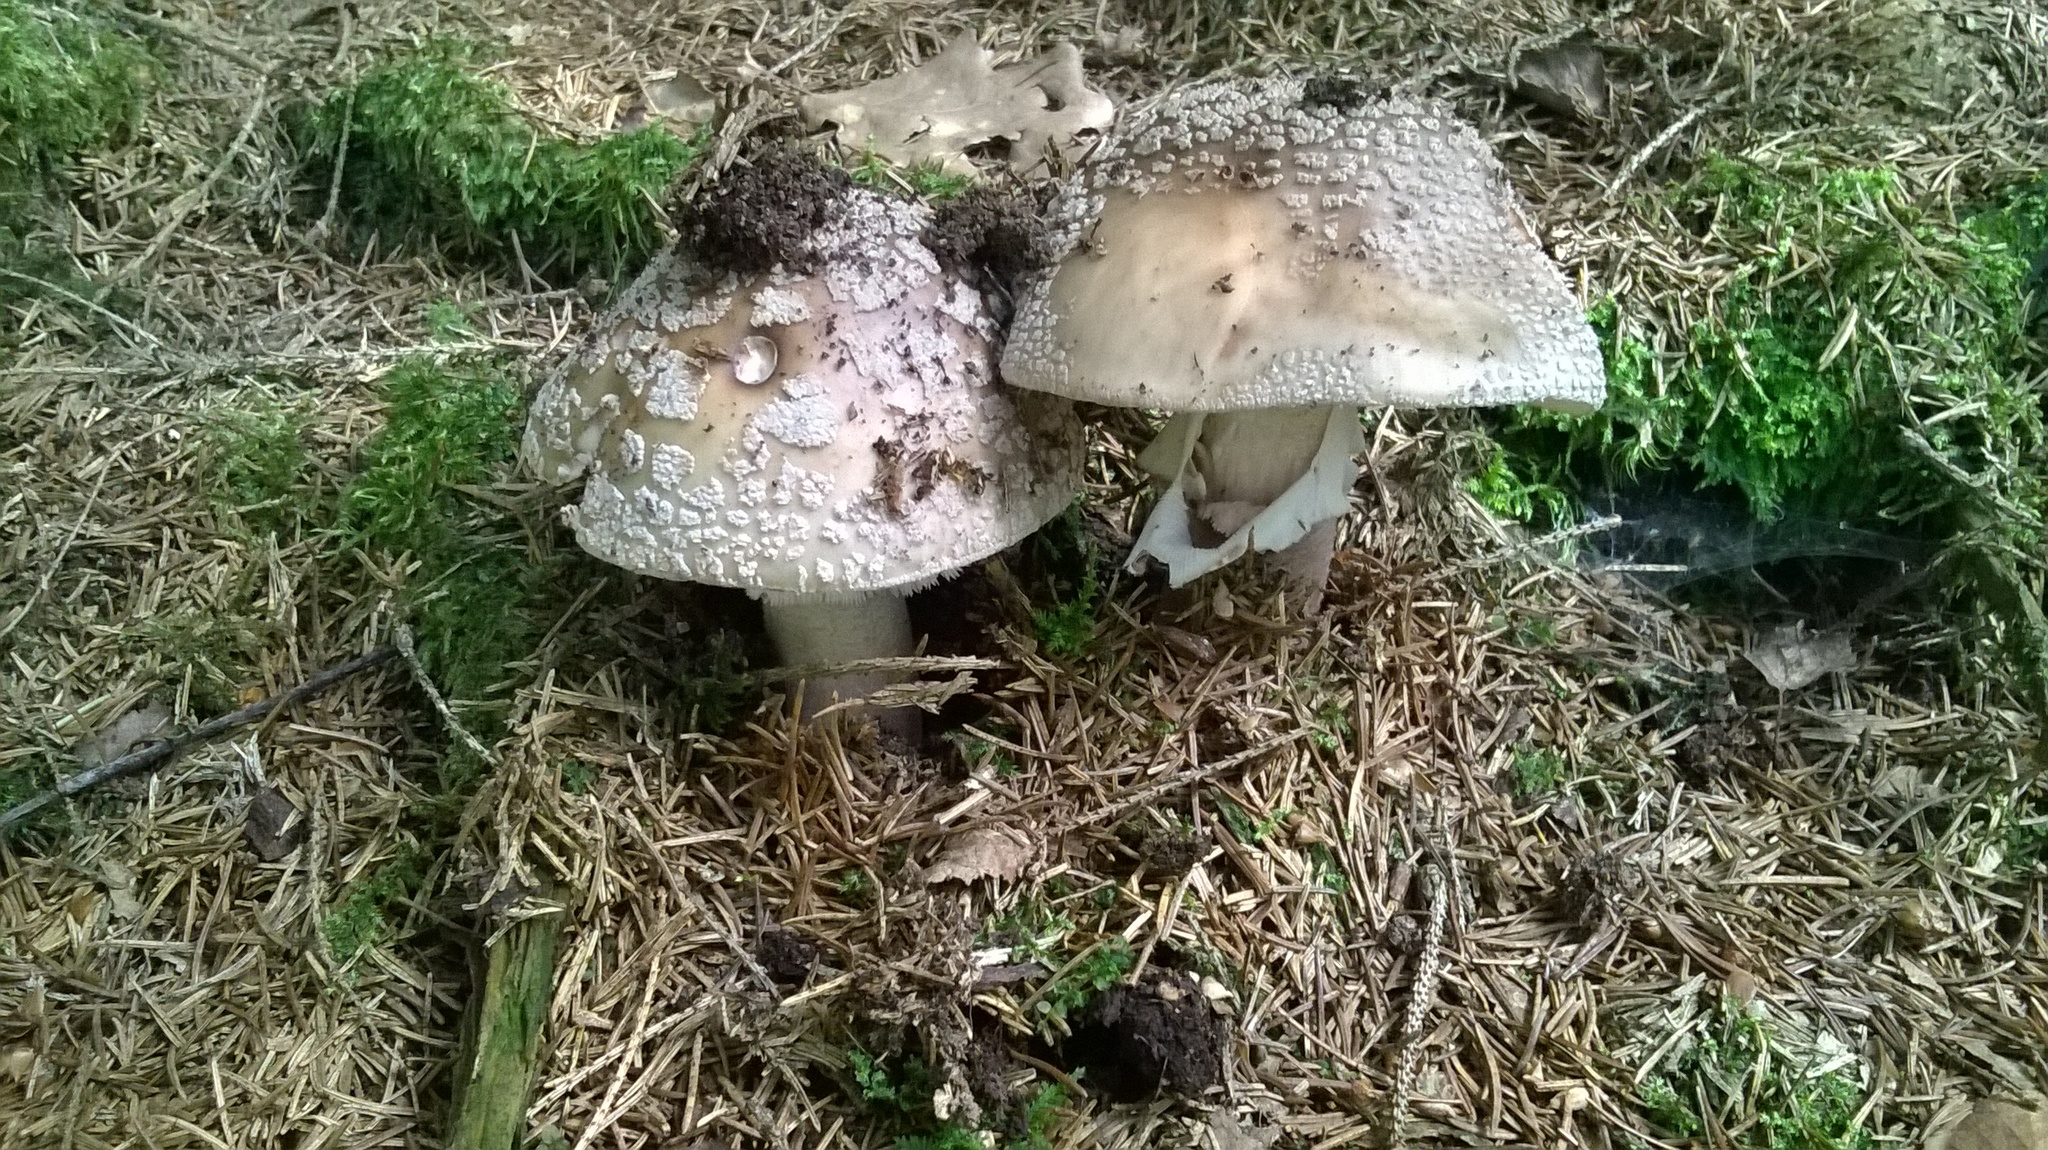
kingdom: Fungi
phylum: Basidiomycota
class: Agaricomycetes
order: Agaricales
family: Amanitaceae
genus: Amanita
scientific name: Amanita excelsa
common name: European false blusher
